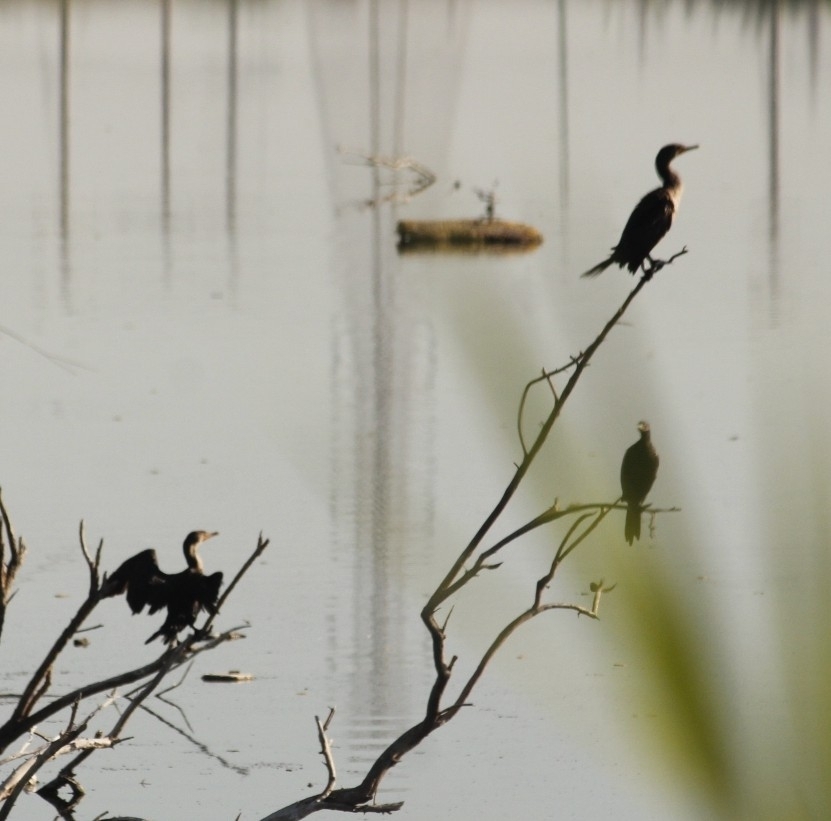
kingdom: Animalia
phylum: Chordata
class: Aves
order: Suliformes
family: Phalacrocoracidae
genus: Phalacrocorax
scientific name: Phalacrocorax brasilianus
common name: Neotropic cormorant
